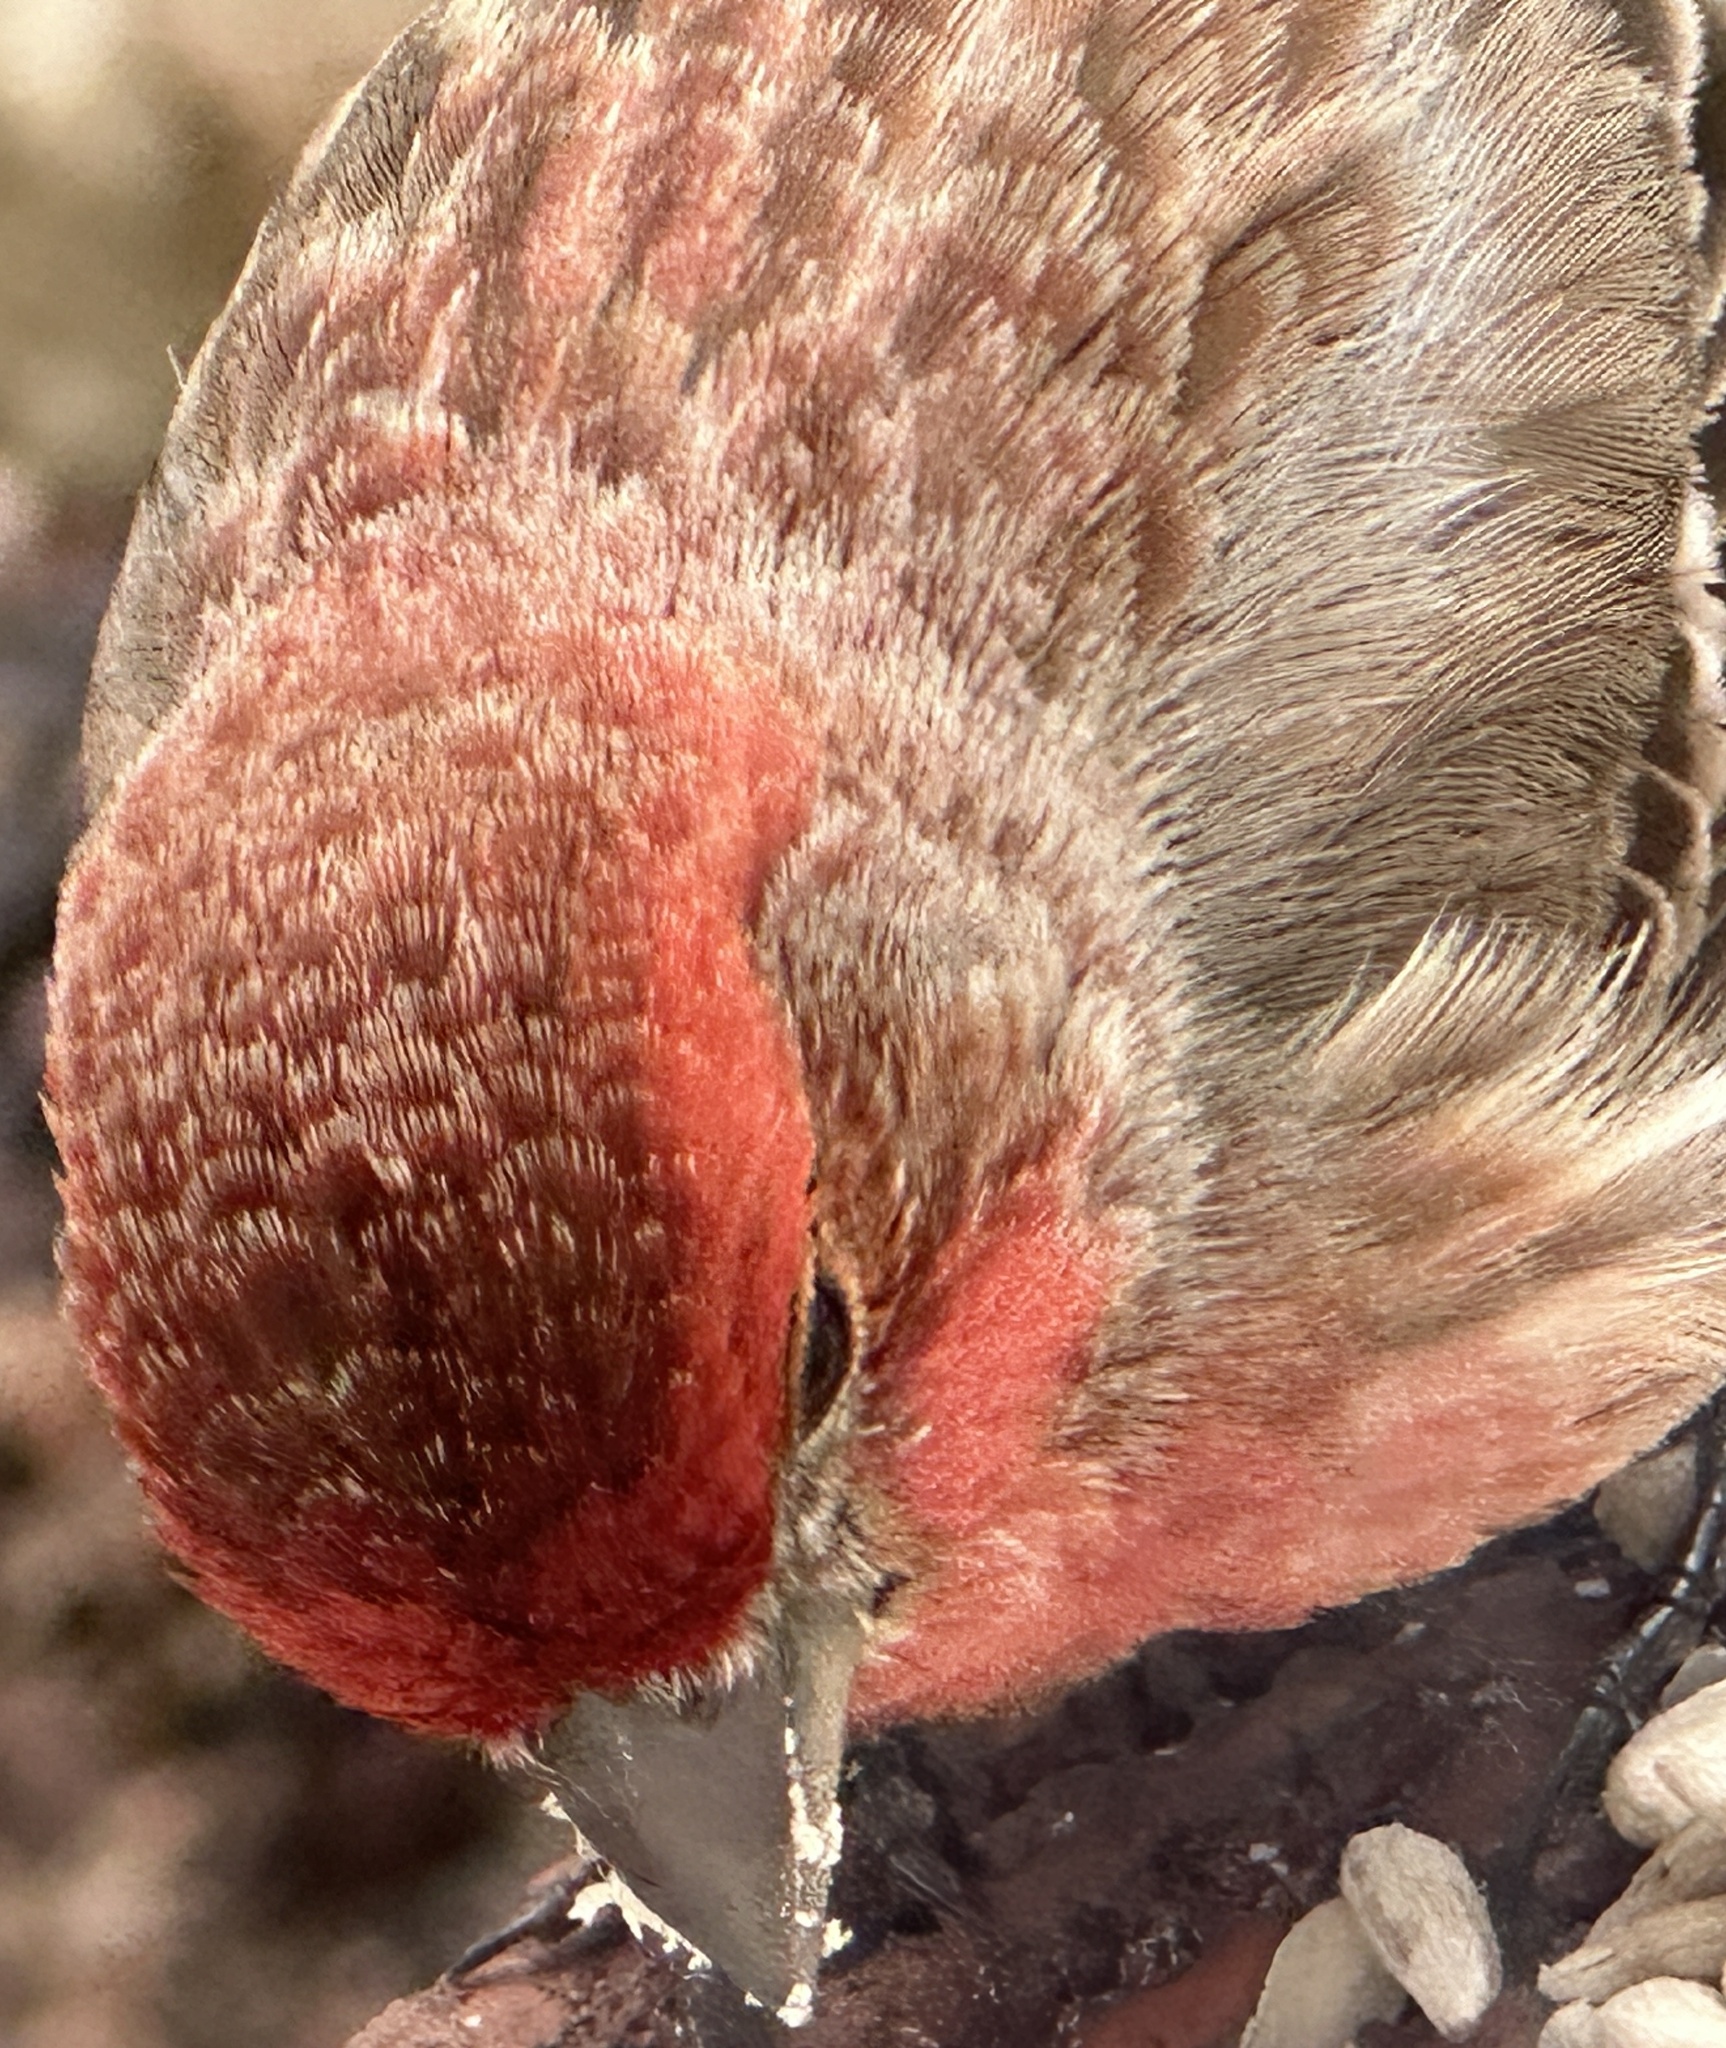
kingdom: Animalia
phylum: Chordata
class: Aves
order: Passeriformes
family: Fringillidae
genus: Haemorhous
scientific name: Haemorhous mexicanus
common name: House finch
